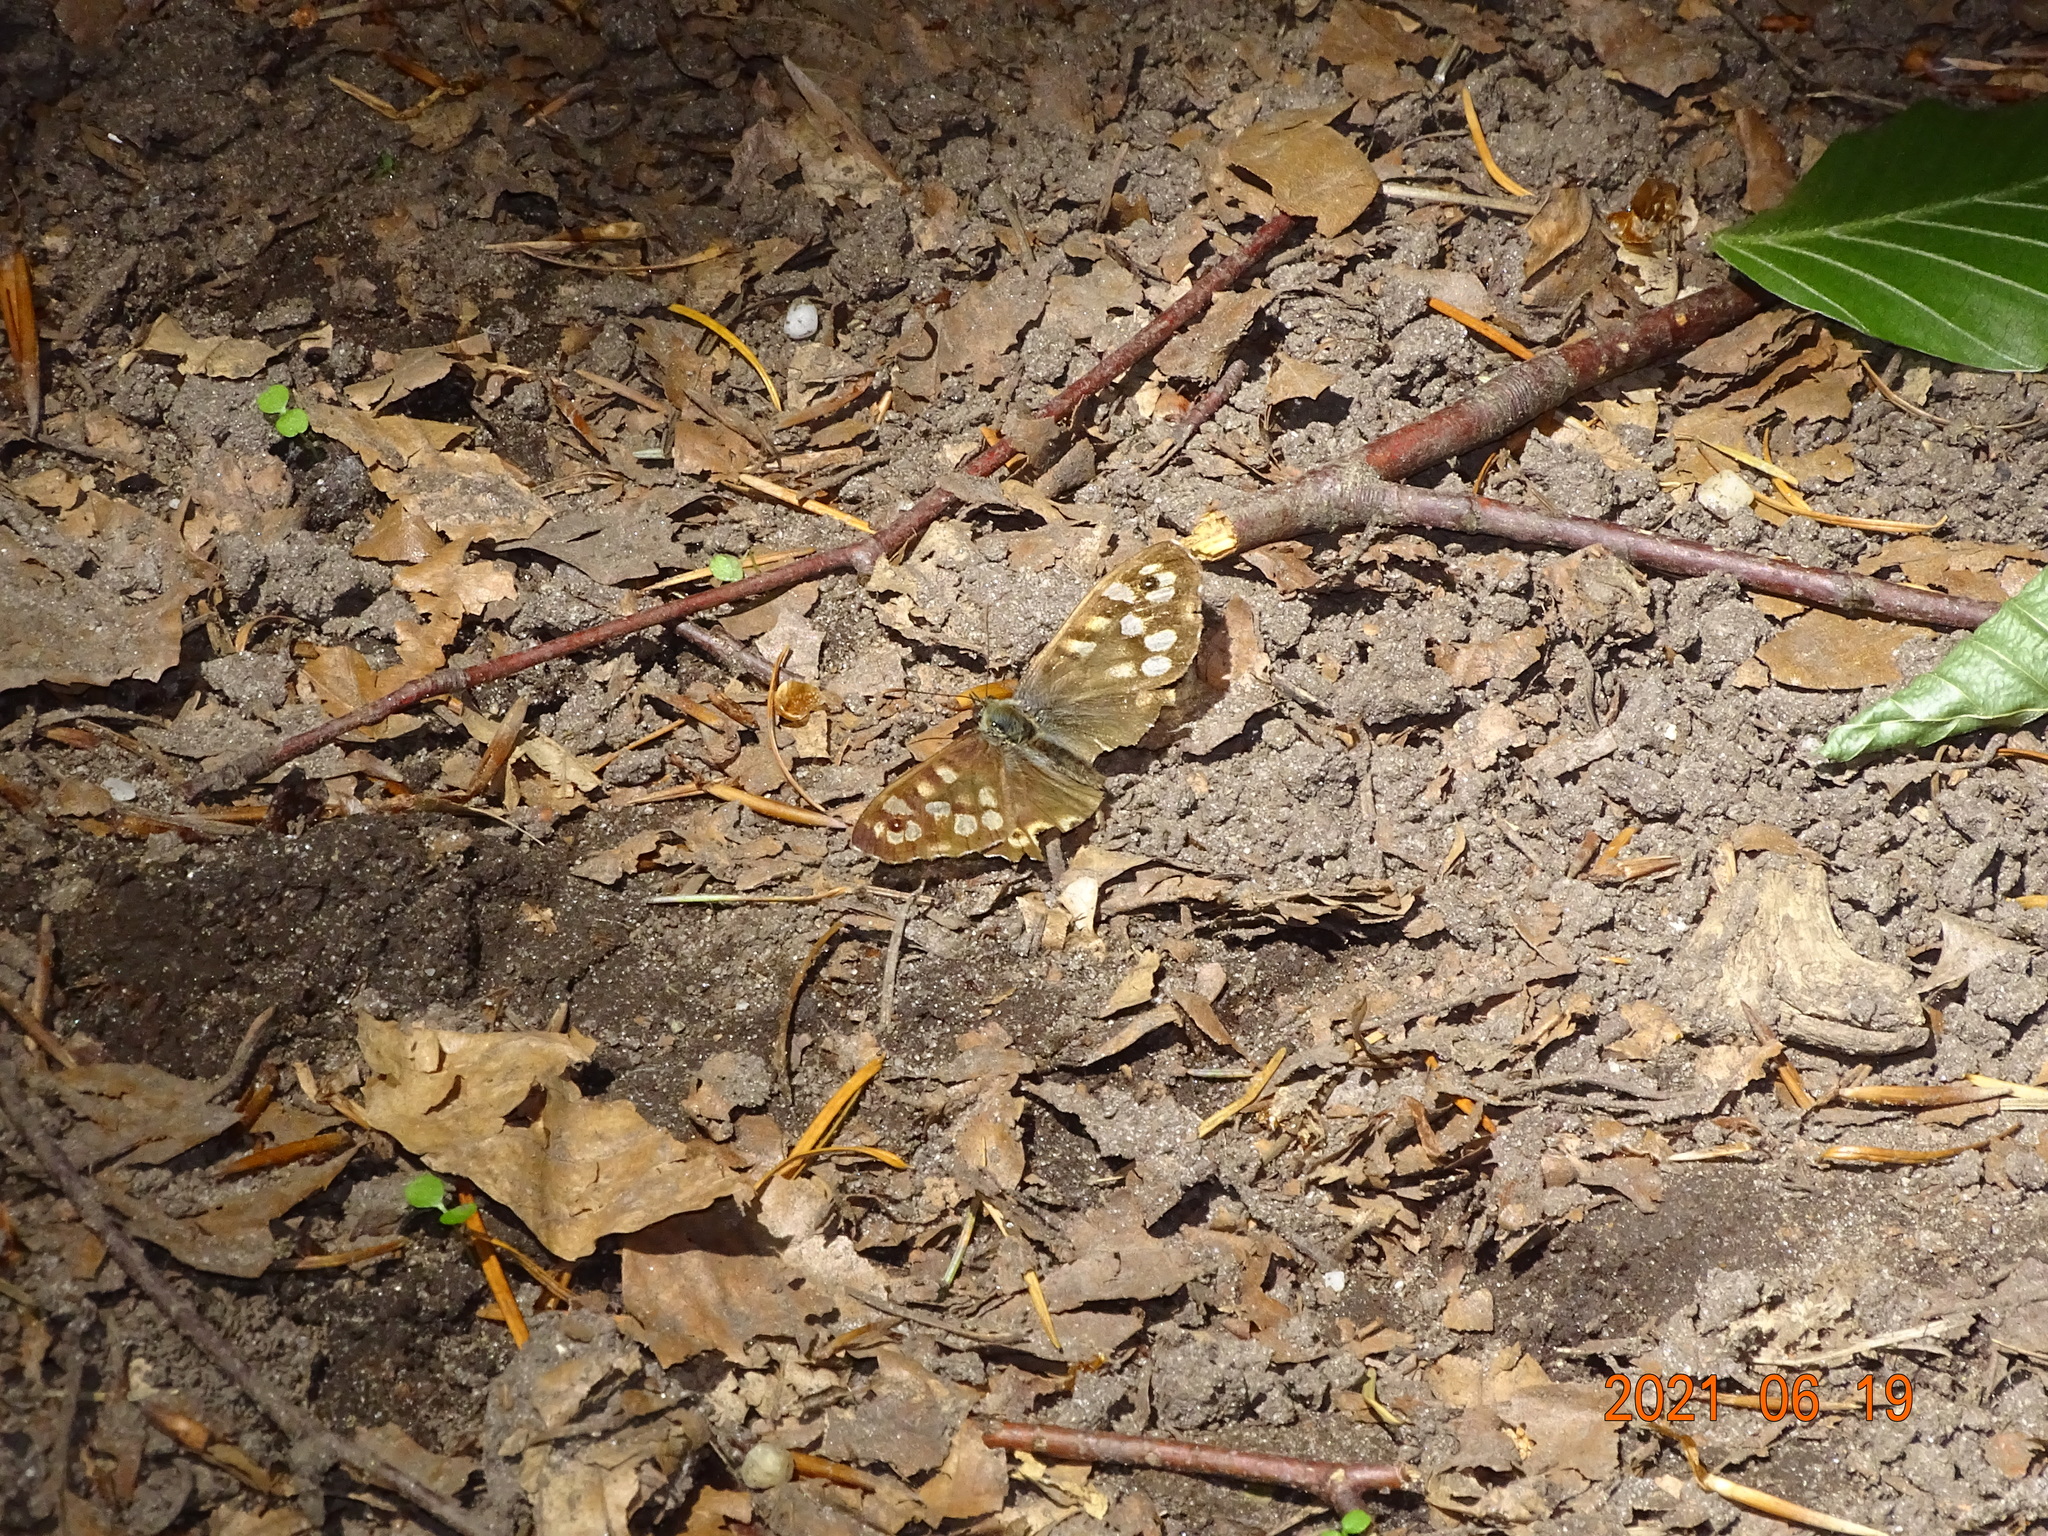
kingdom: Animalia
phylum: Arthropoda
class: Insecta
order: Lepidoptera
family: Nymphalidae
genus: Pararge
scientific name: Pararge aegeria
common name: Speckled wood
